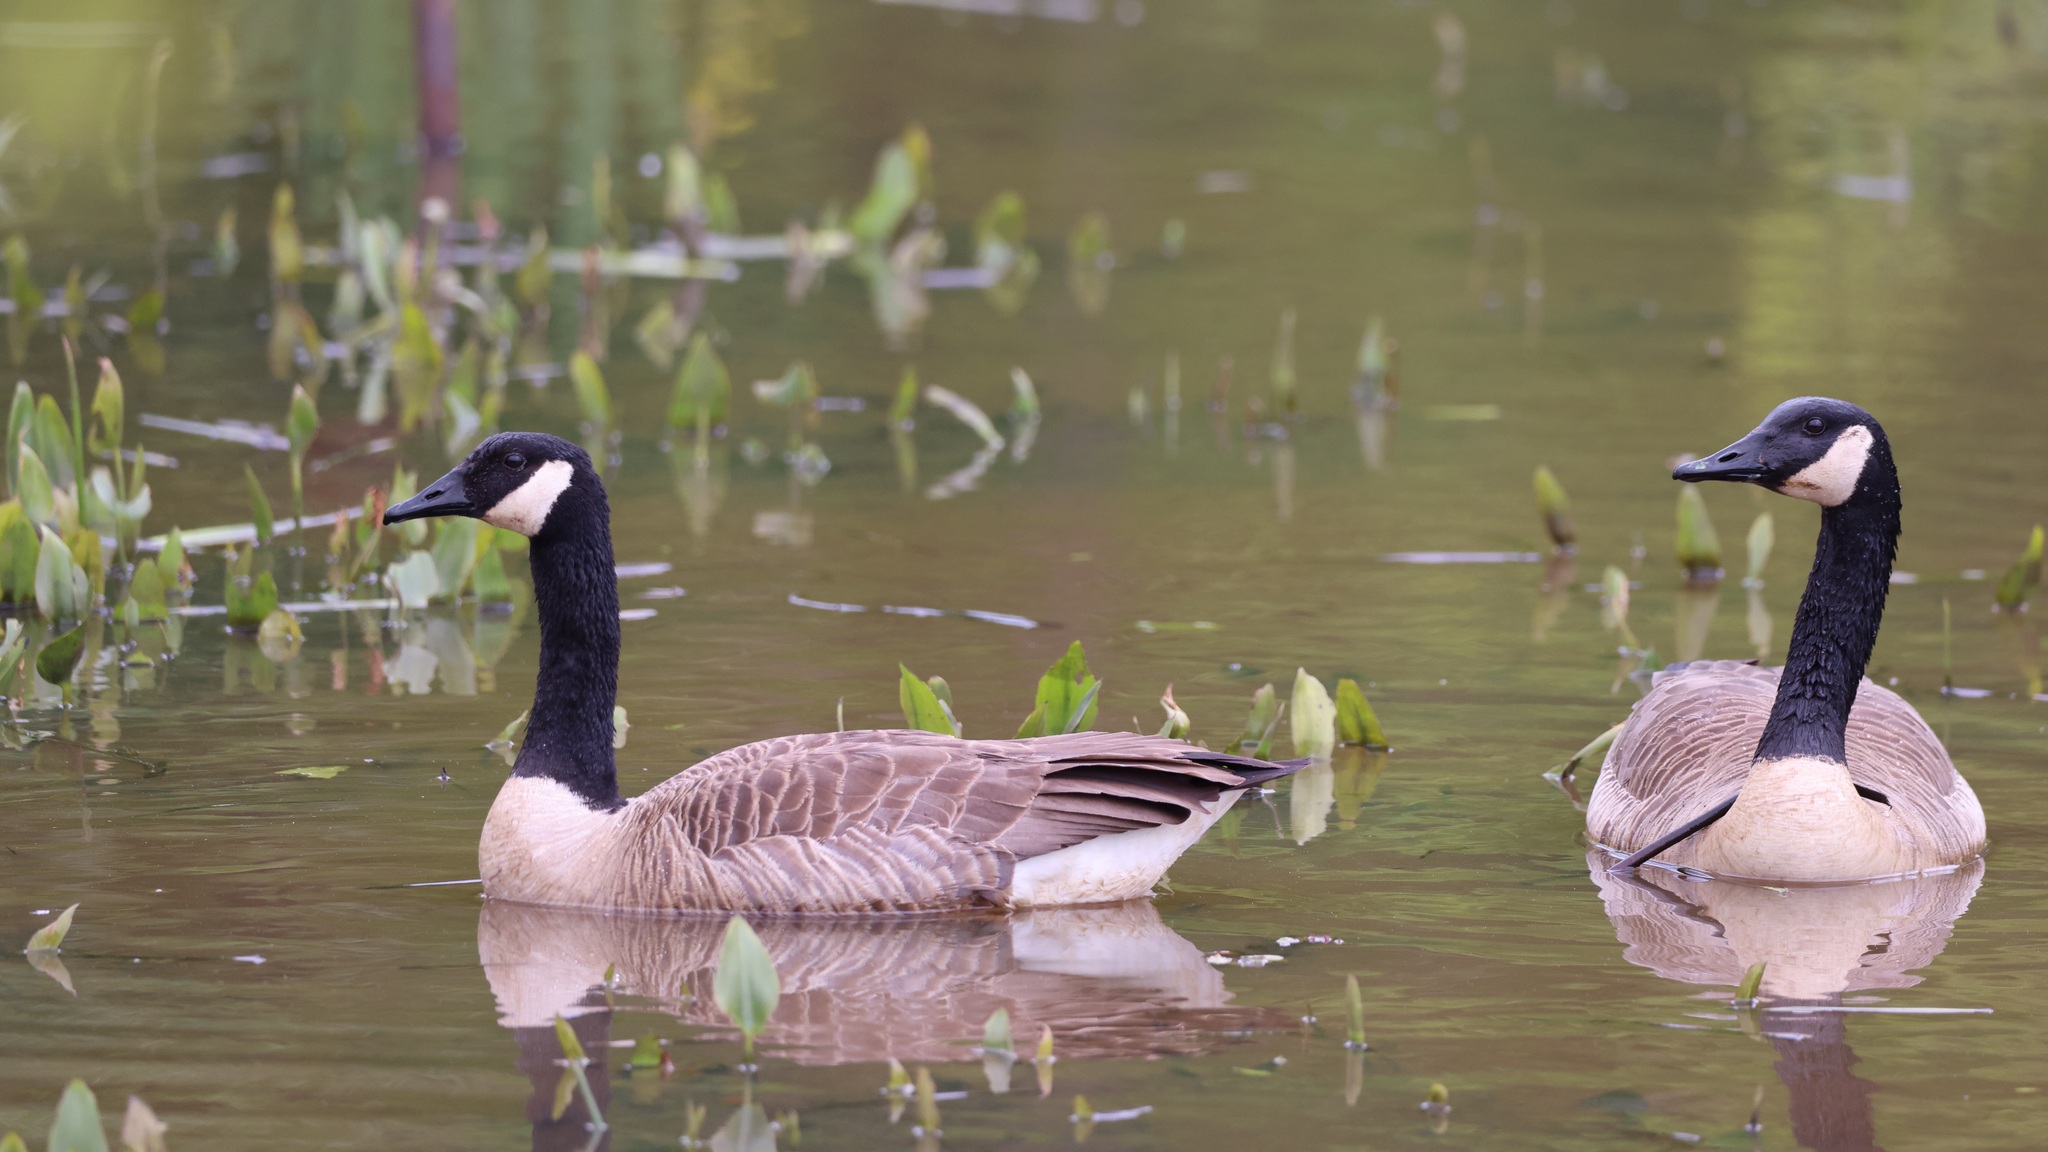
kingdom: Animalia
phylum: Chordata
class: Aves
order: Anseriformes
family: Anatidae
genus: Branta
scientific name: Branta canadensis
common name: Canada goose
